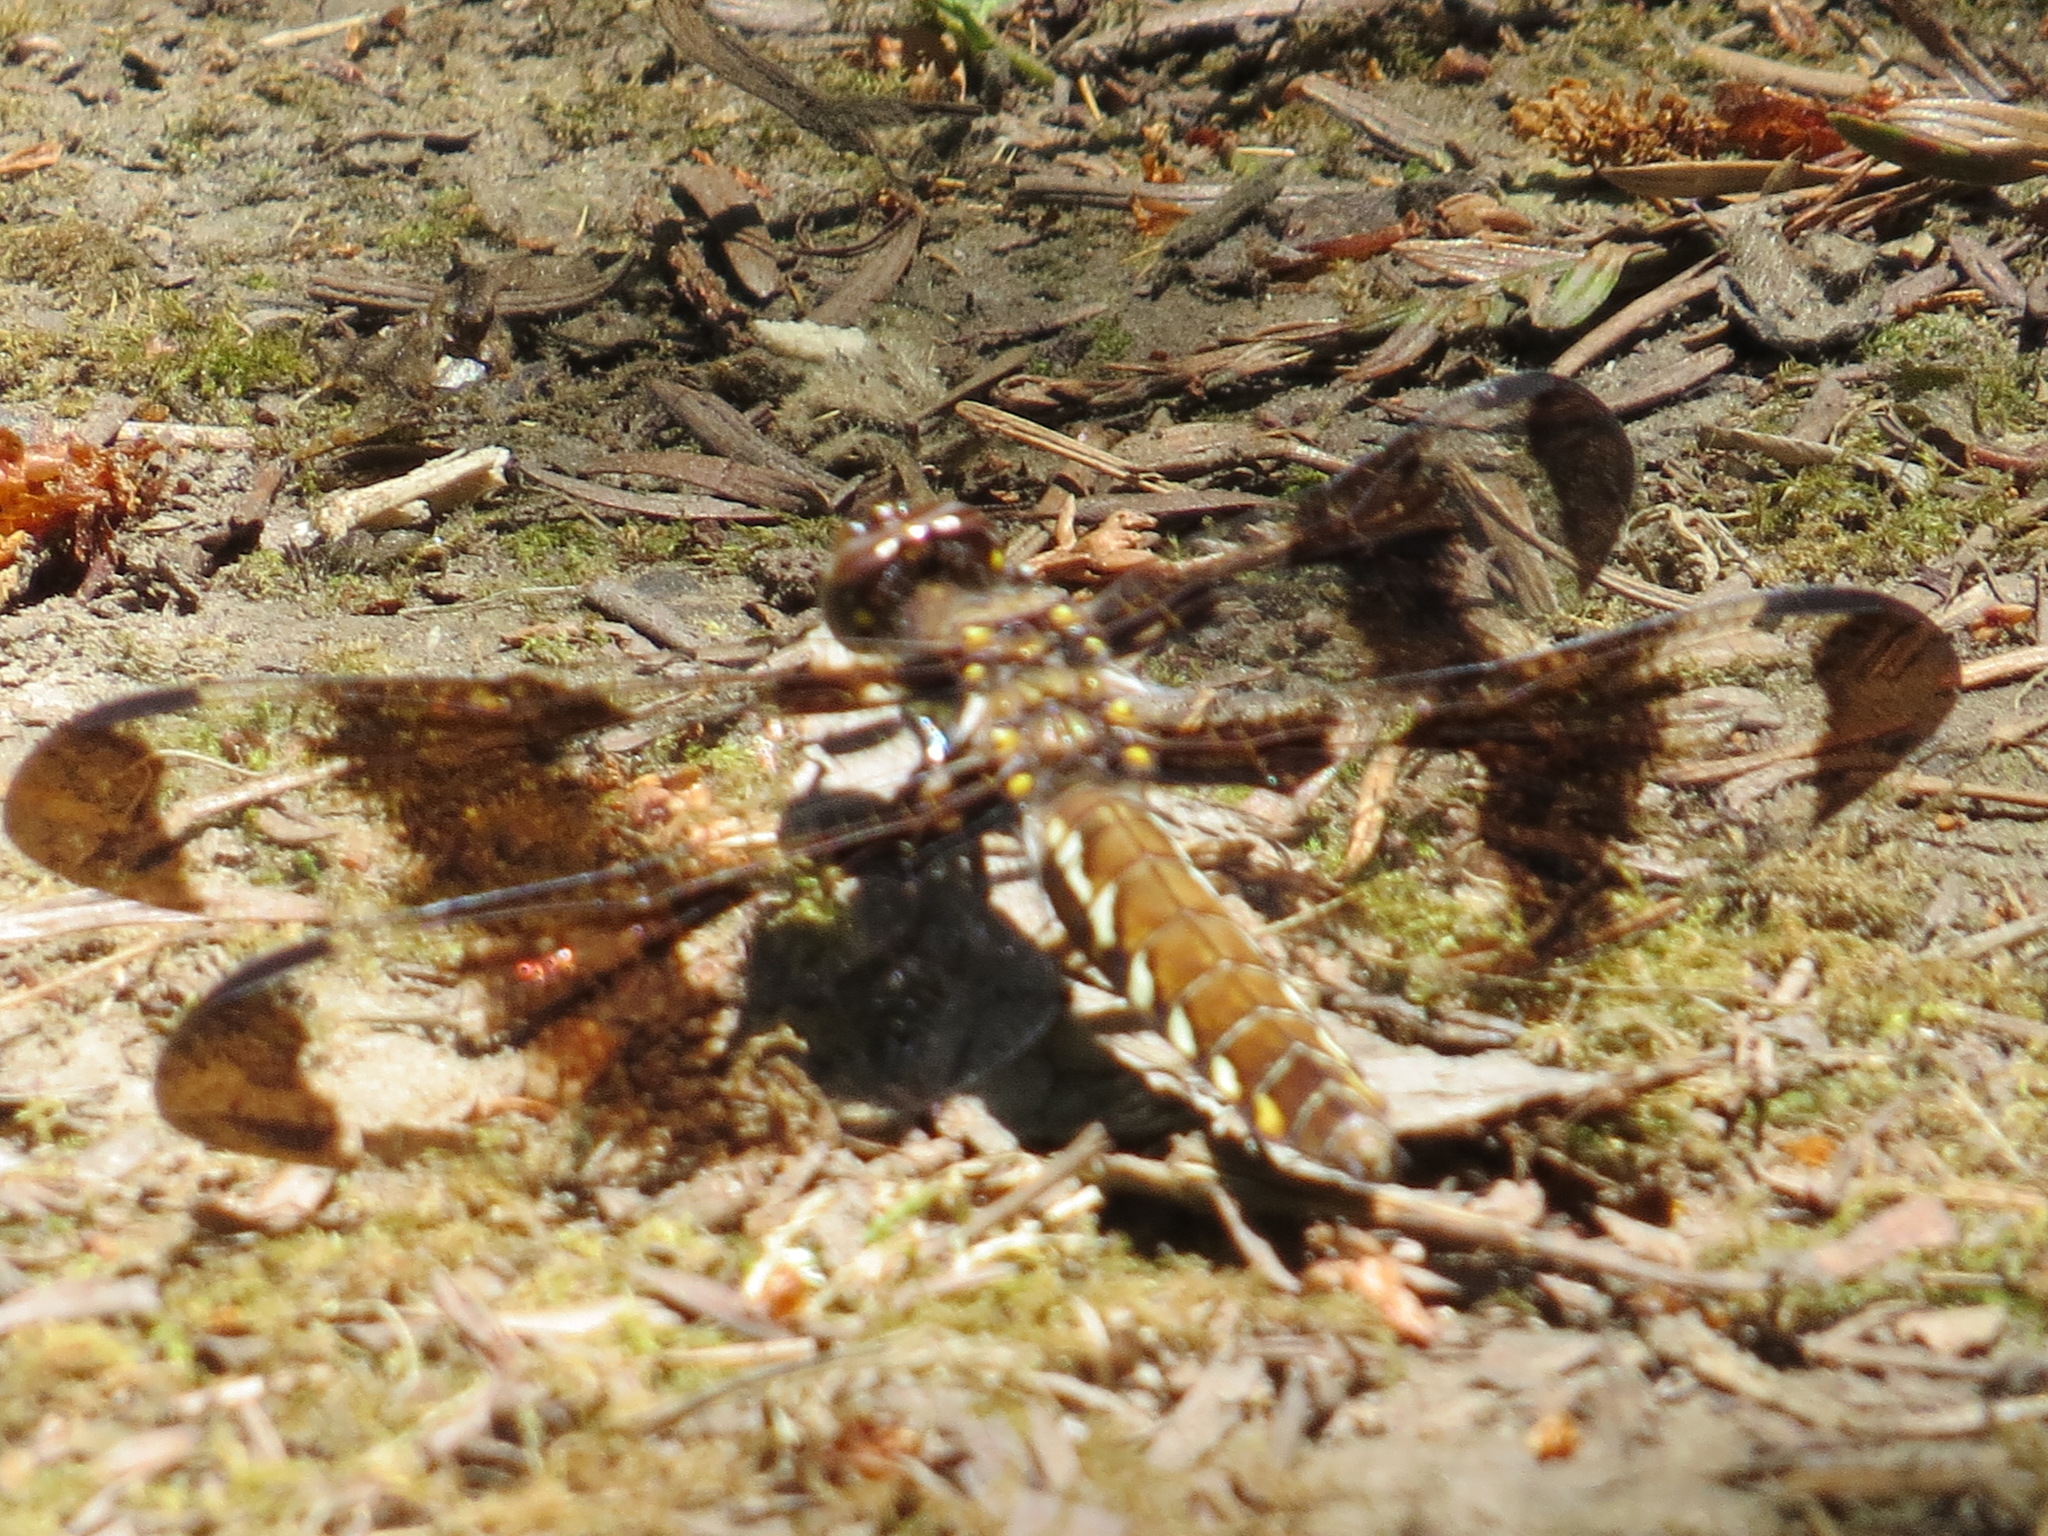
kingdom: Animalia
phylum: Arthropoda
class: Insecta
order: Odonata
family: Libellulidae
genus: Plathemis
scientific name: Plathemis lydia
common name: Common whitetail
